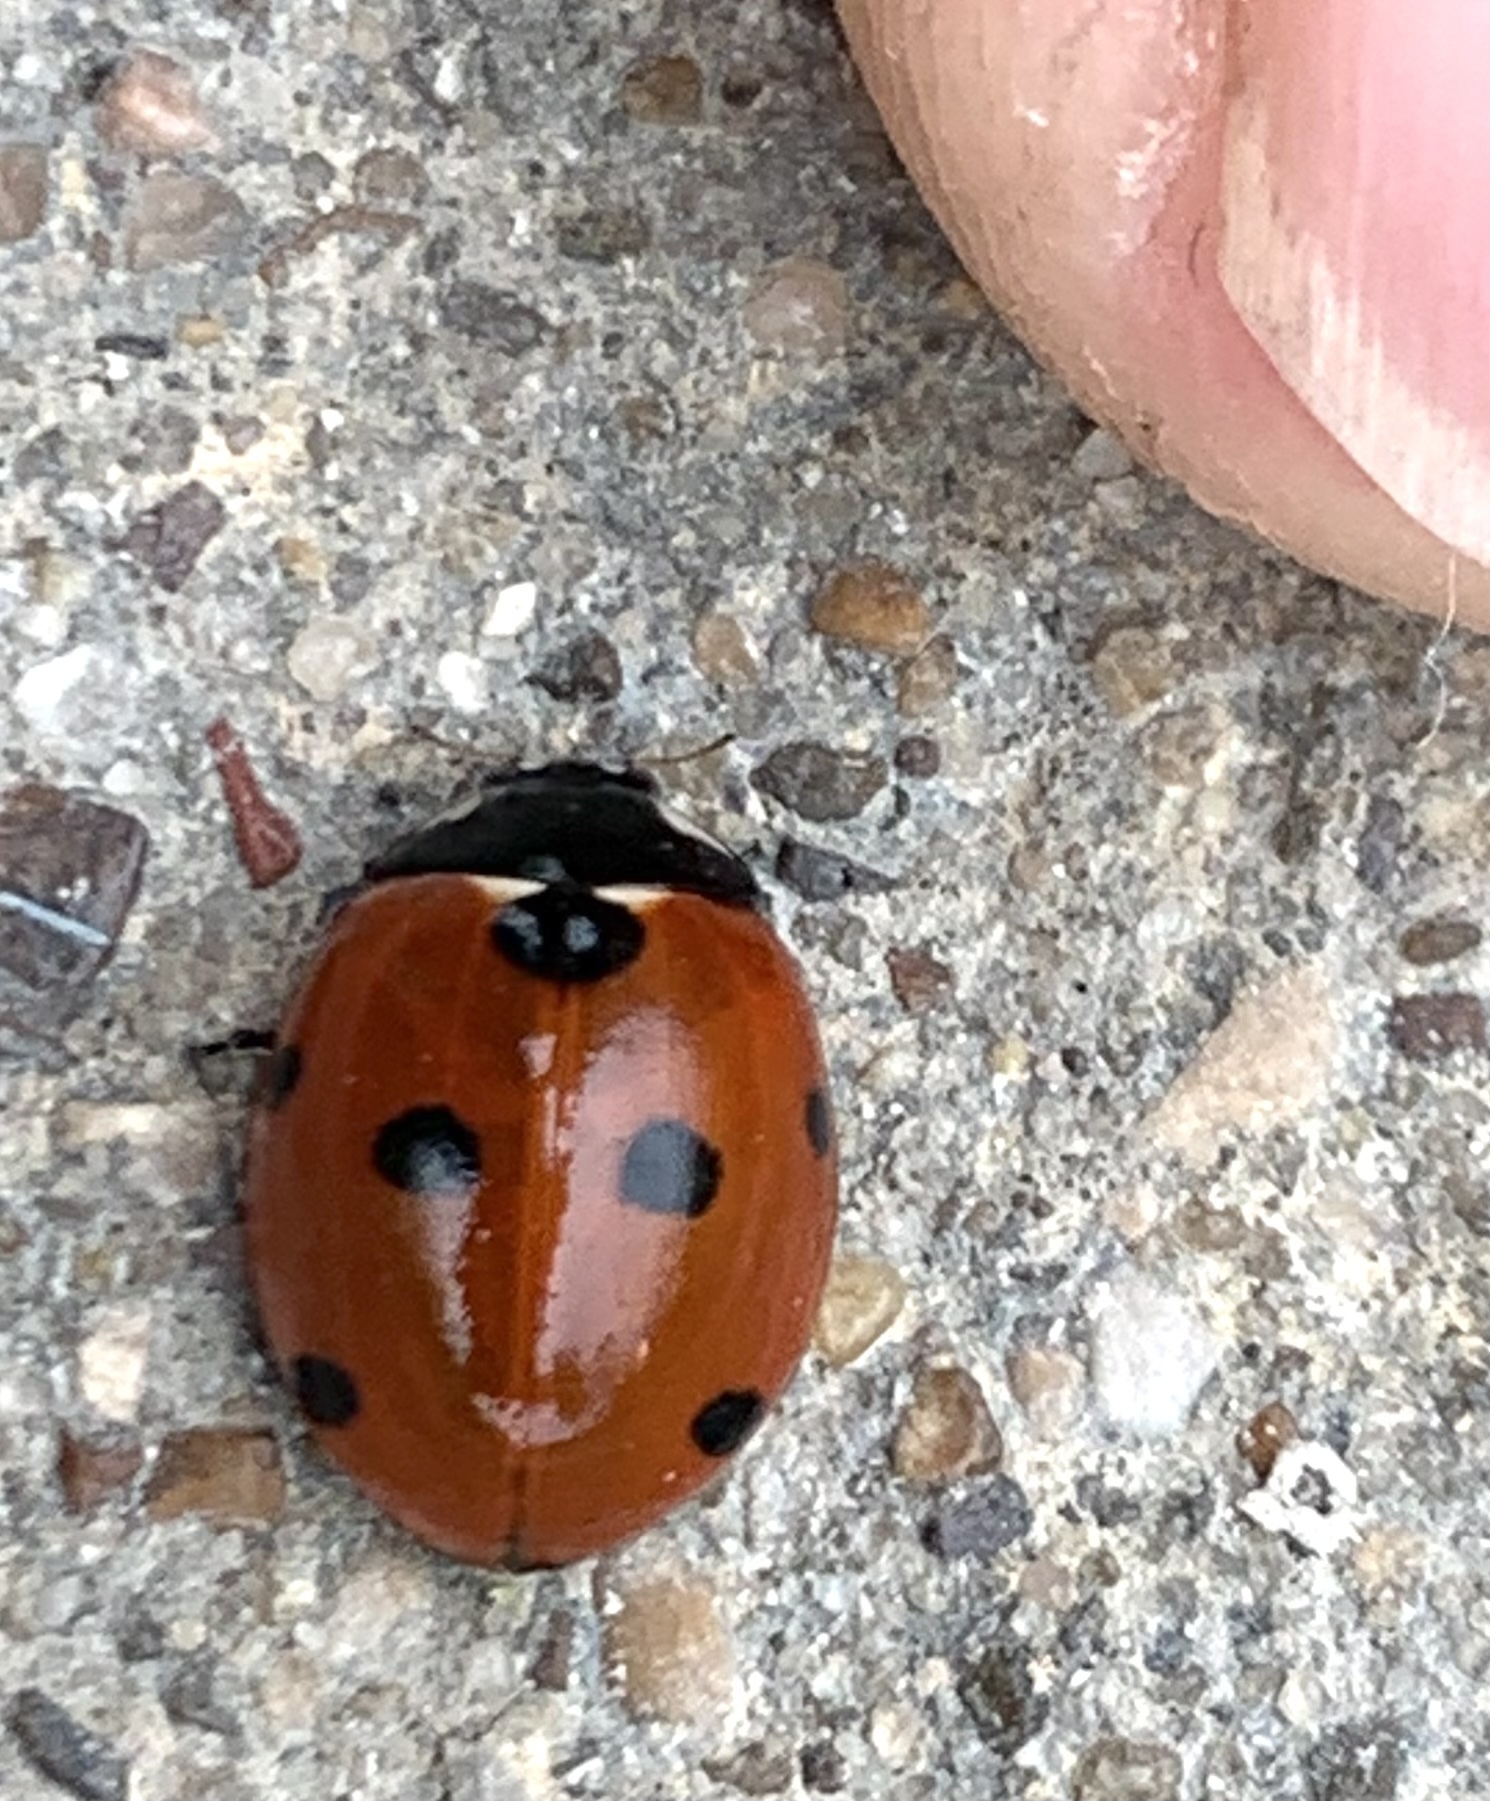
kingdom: Animalia
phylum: Arthropoda
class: Insecta
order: Coleoptera
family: Coccinellidae
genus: Coccinella
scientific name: Coccinella septempunctata
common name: Sevenspotted lady beetle
